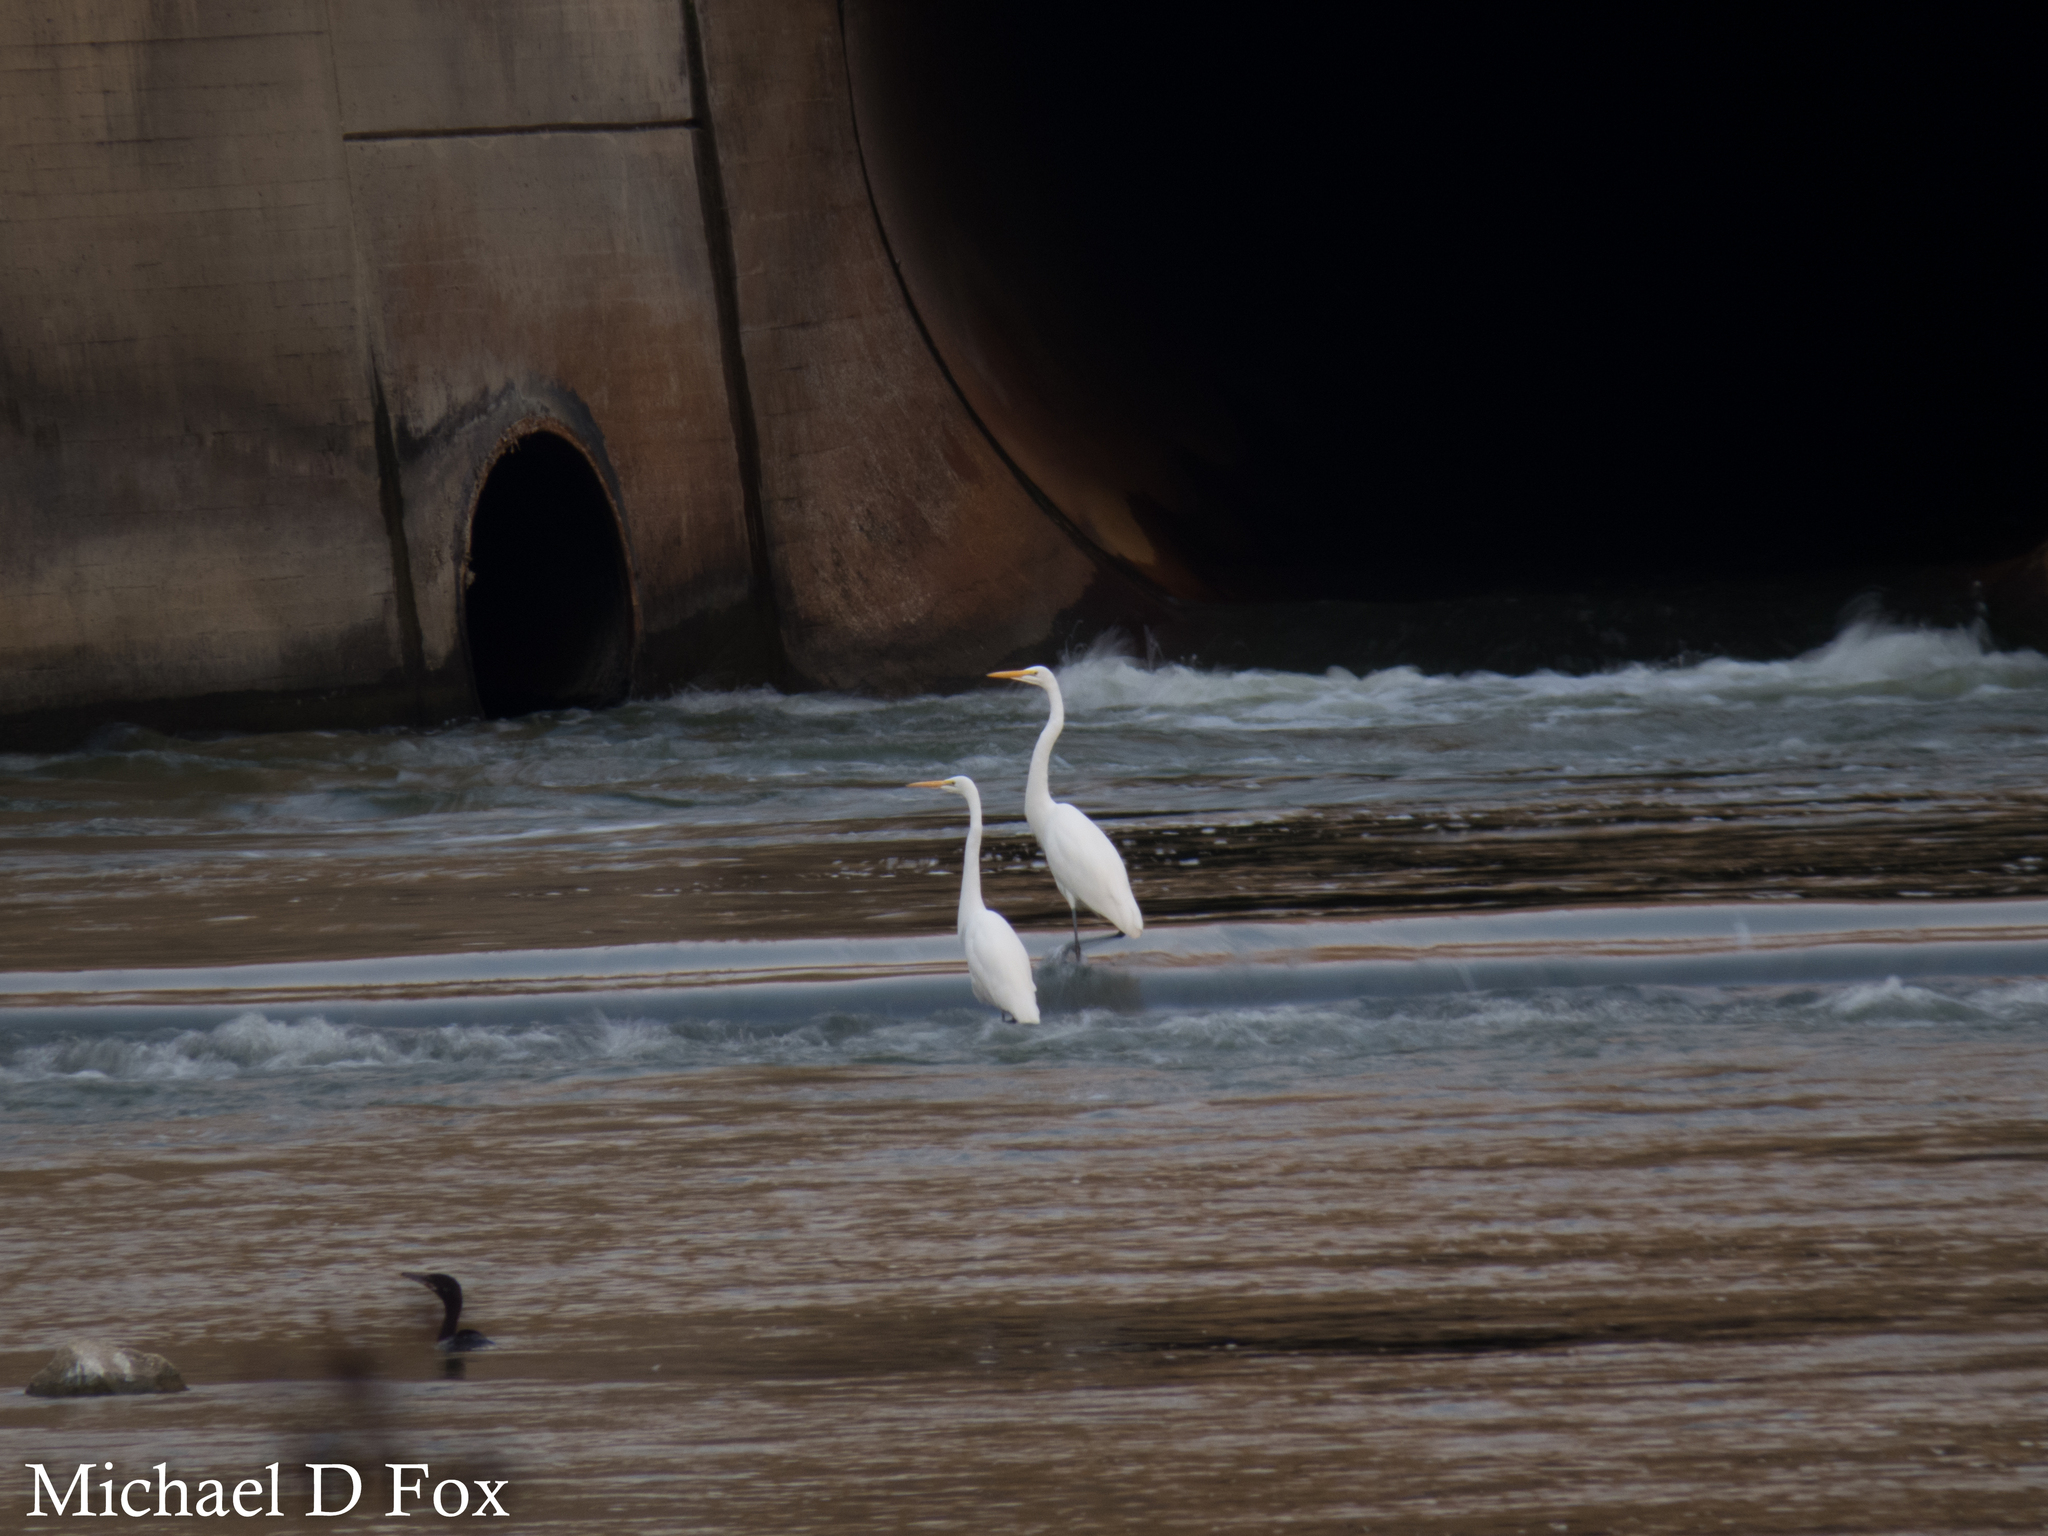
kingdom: Animalia
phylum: Chordata
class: Aves
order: Pelecaniformes
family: Ardeidae
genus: Ardea
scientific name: Ardea alba
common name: Great egret
